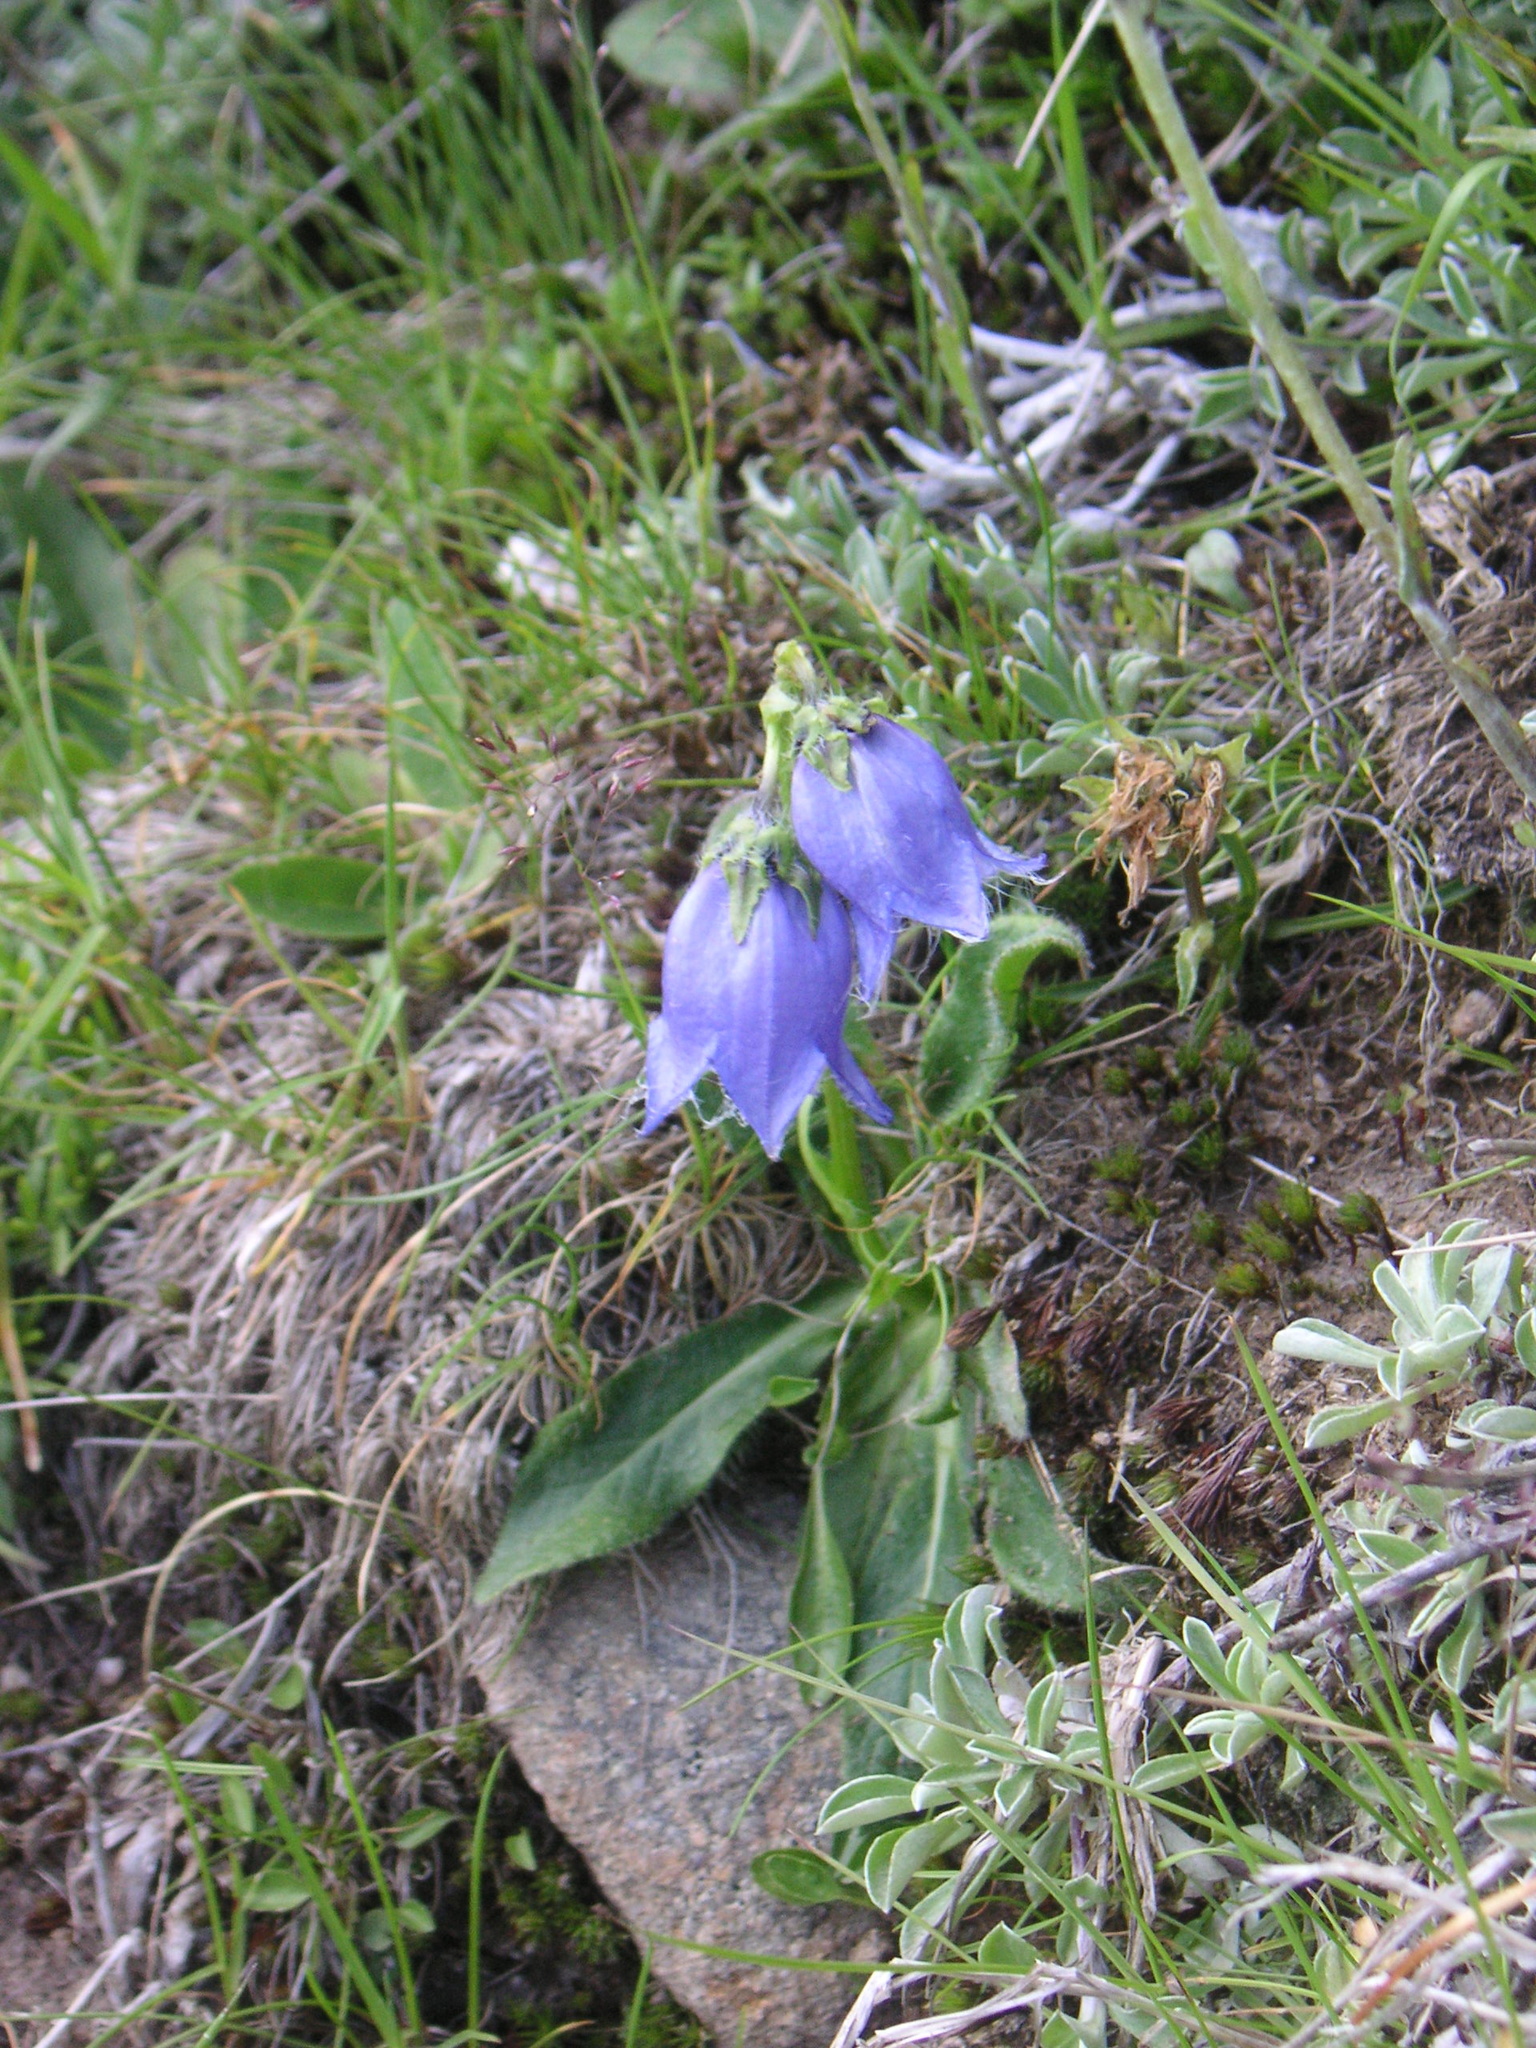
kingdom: Plantae
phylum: Tracheophyta
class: Magnoliopsida
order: Asterales
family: Campanulaceae
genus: Campanula
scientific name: Campanula barbata
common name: Bearded bellflower
